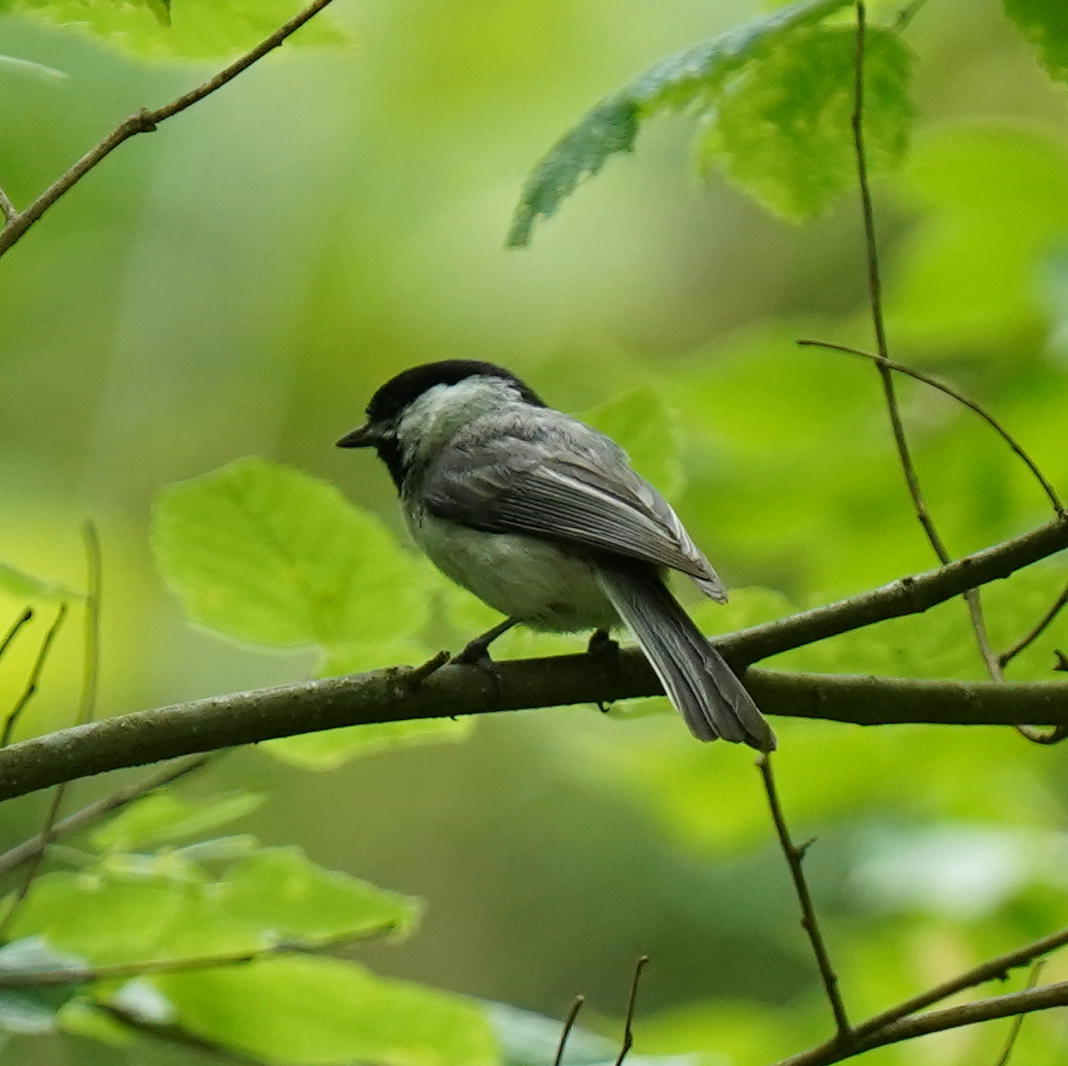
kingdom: Animalia
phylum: Chordata
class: Aves
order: Passeriformes
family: Paridae
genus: Poecile
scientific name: Poecile carolinensis
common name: Carolina chickadee
